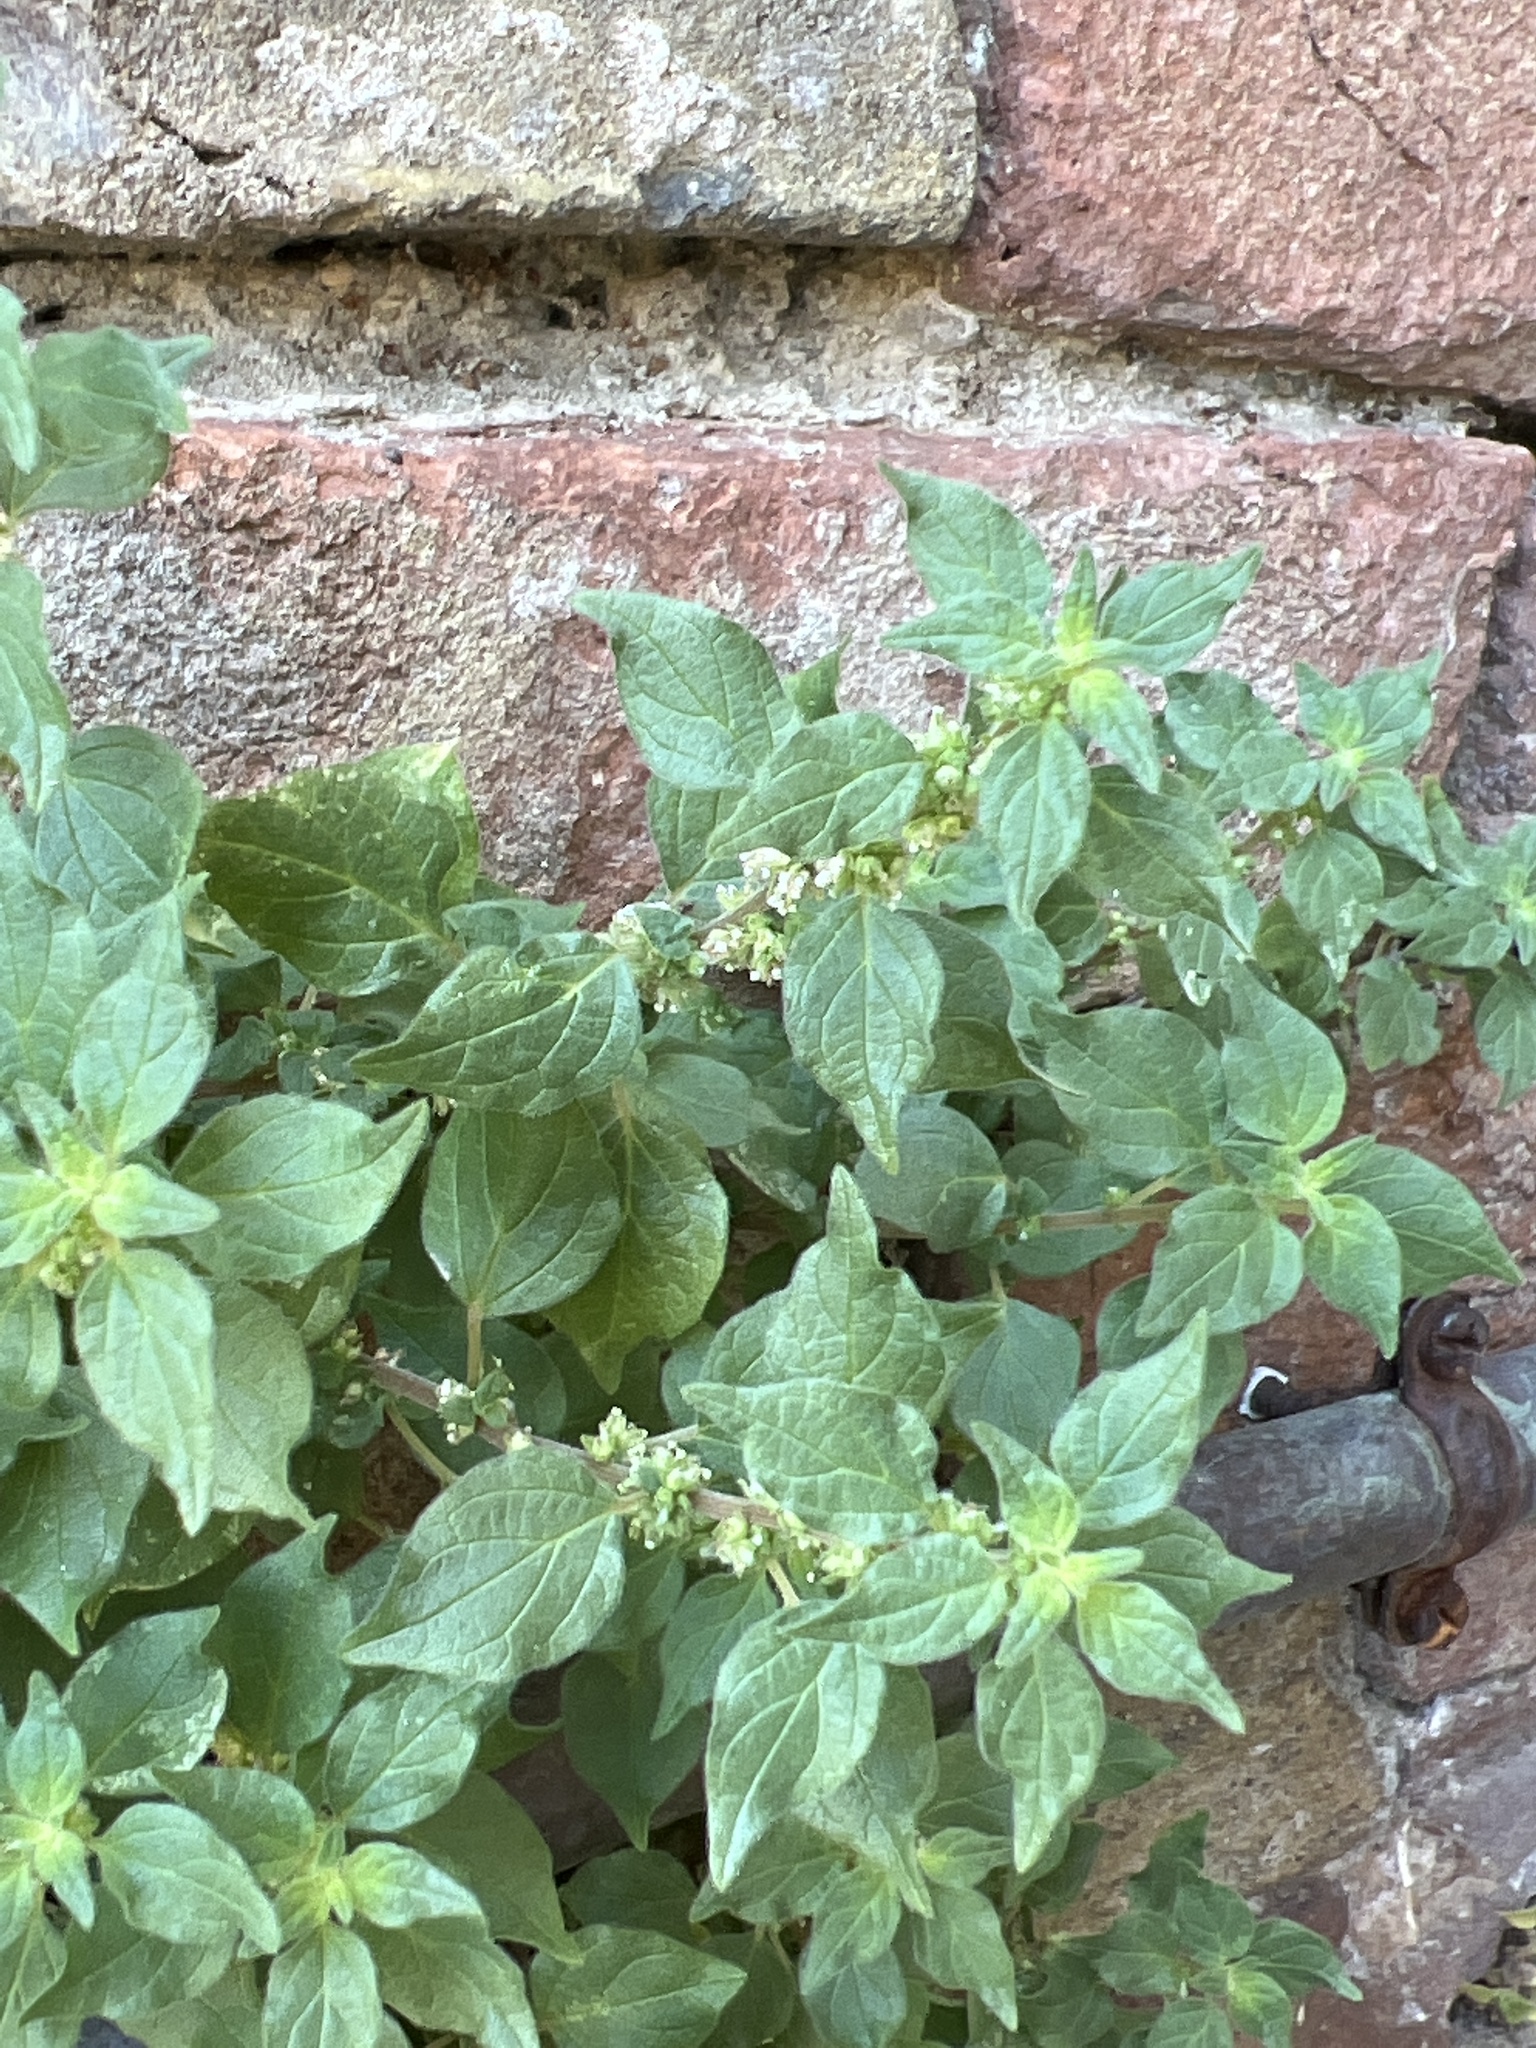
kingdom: Plantae
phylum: Tracheophyta
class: Magnoliopsida
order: Rosales
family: Urticaceae
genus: Parietaria
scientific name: Parietaria judaica
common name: Pellitory-of-the-wall
